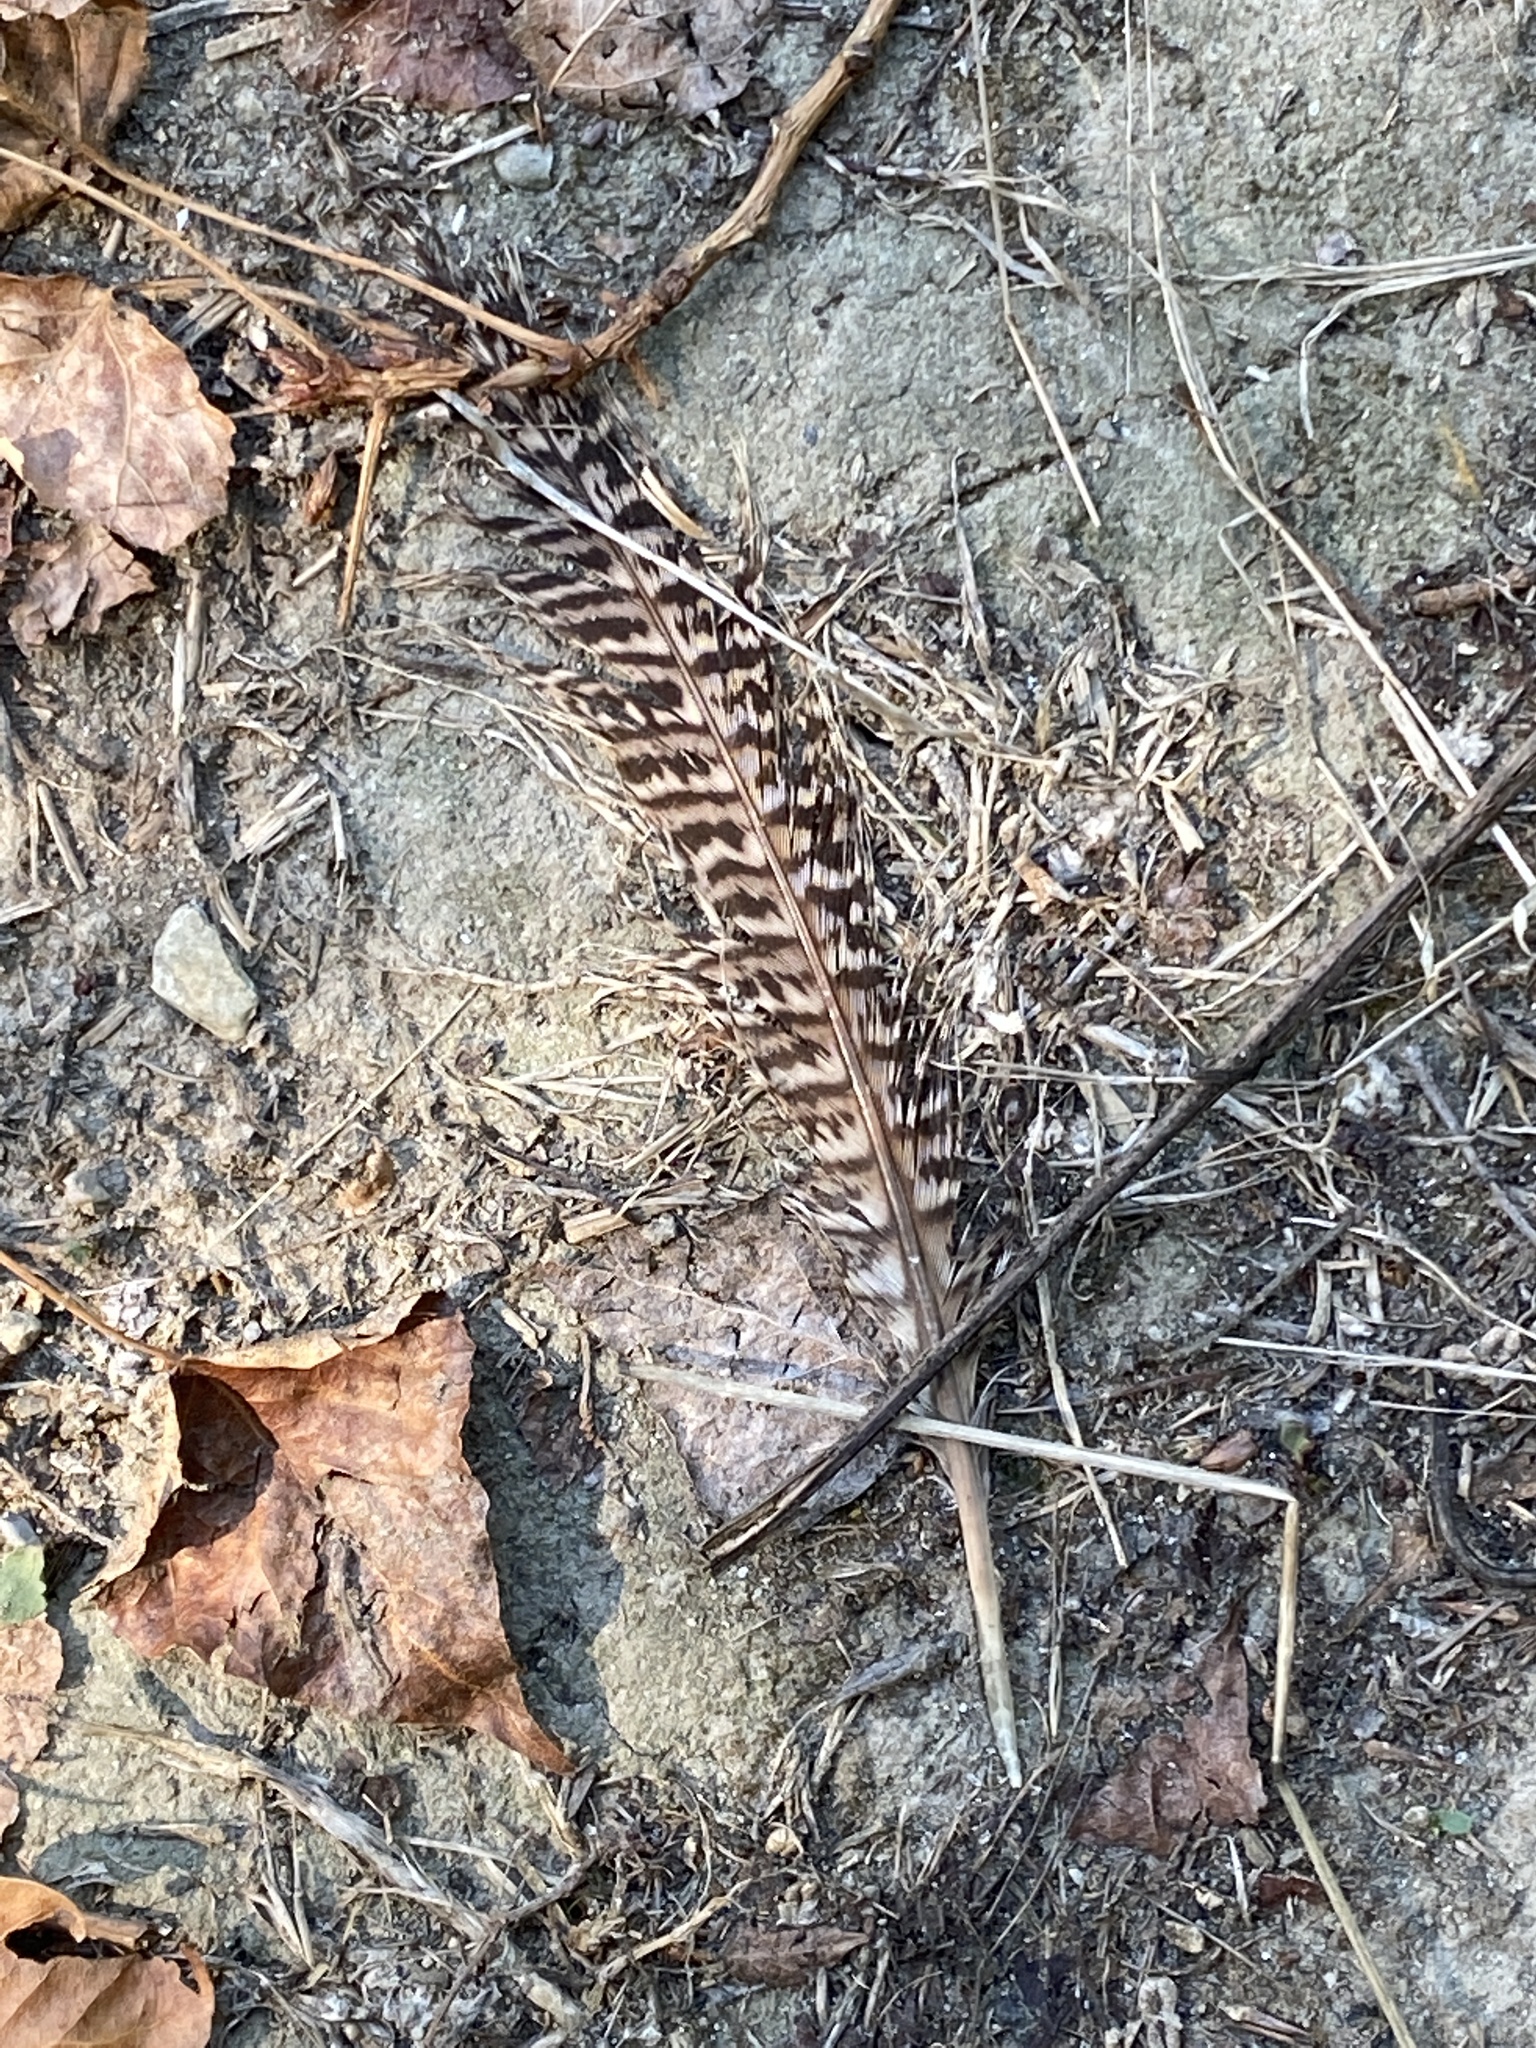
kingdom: Animalia
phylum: Chordata
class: Aves
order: Galliformes
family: Phasianidae
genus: Phasianus
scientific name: Phasianus colchicus
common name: Common pheasant
